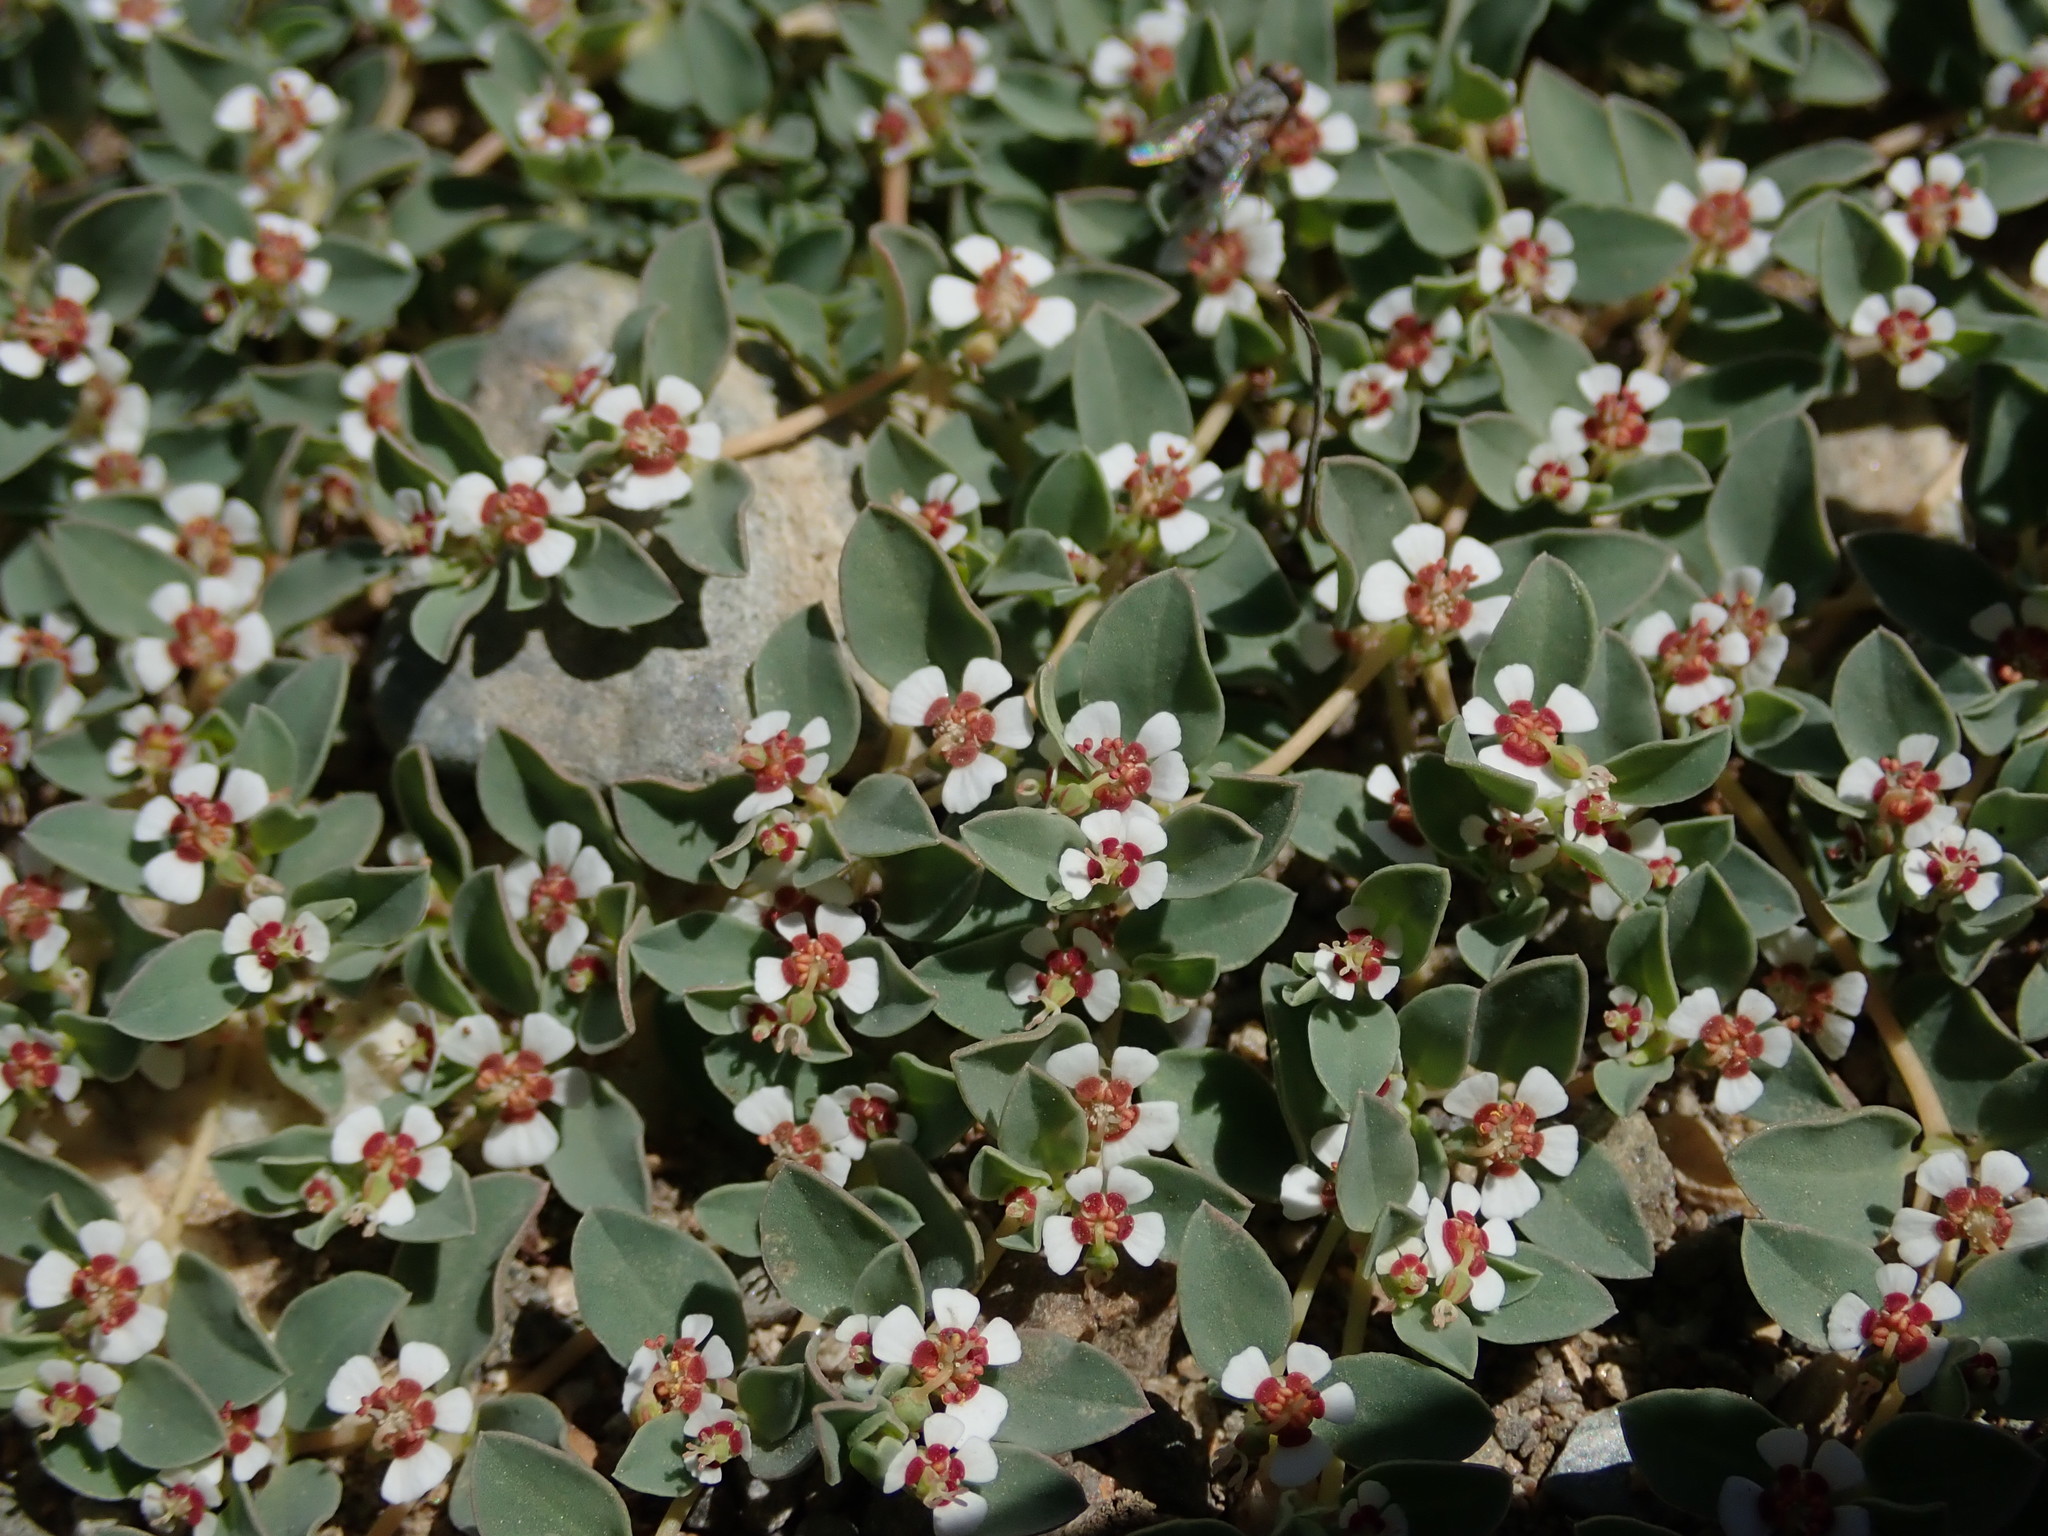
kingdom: Plantae
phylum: Tracheophyta
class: Magnoliopsida
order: Malpighiales
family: Euphorbiaceae
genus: Euphorbia
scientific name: Euphorbia albomarginata
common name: Whitemargin sandmat
